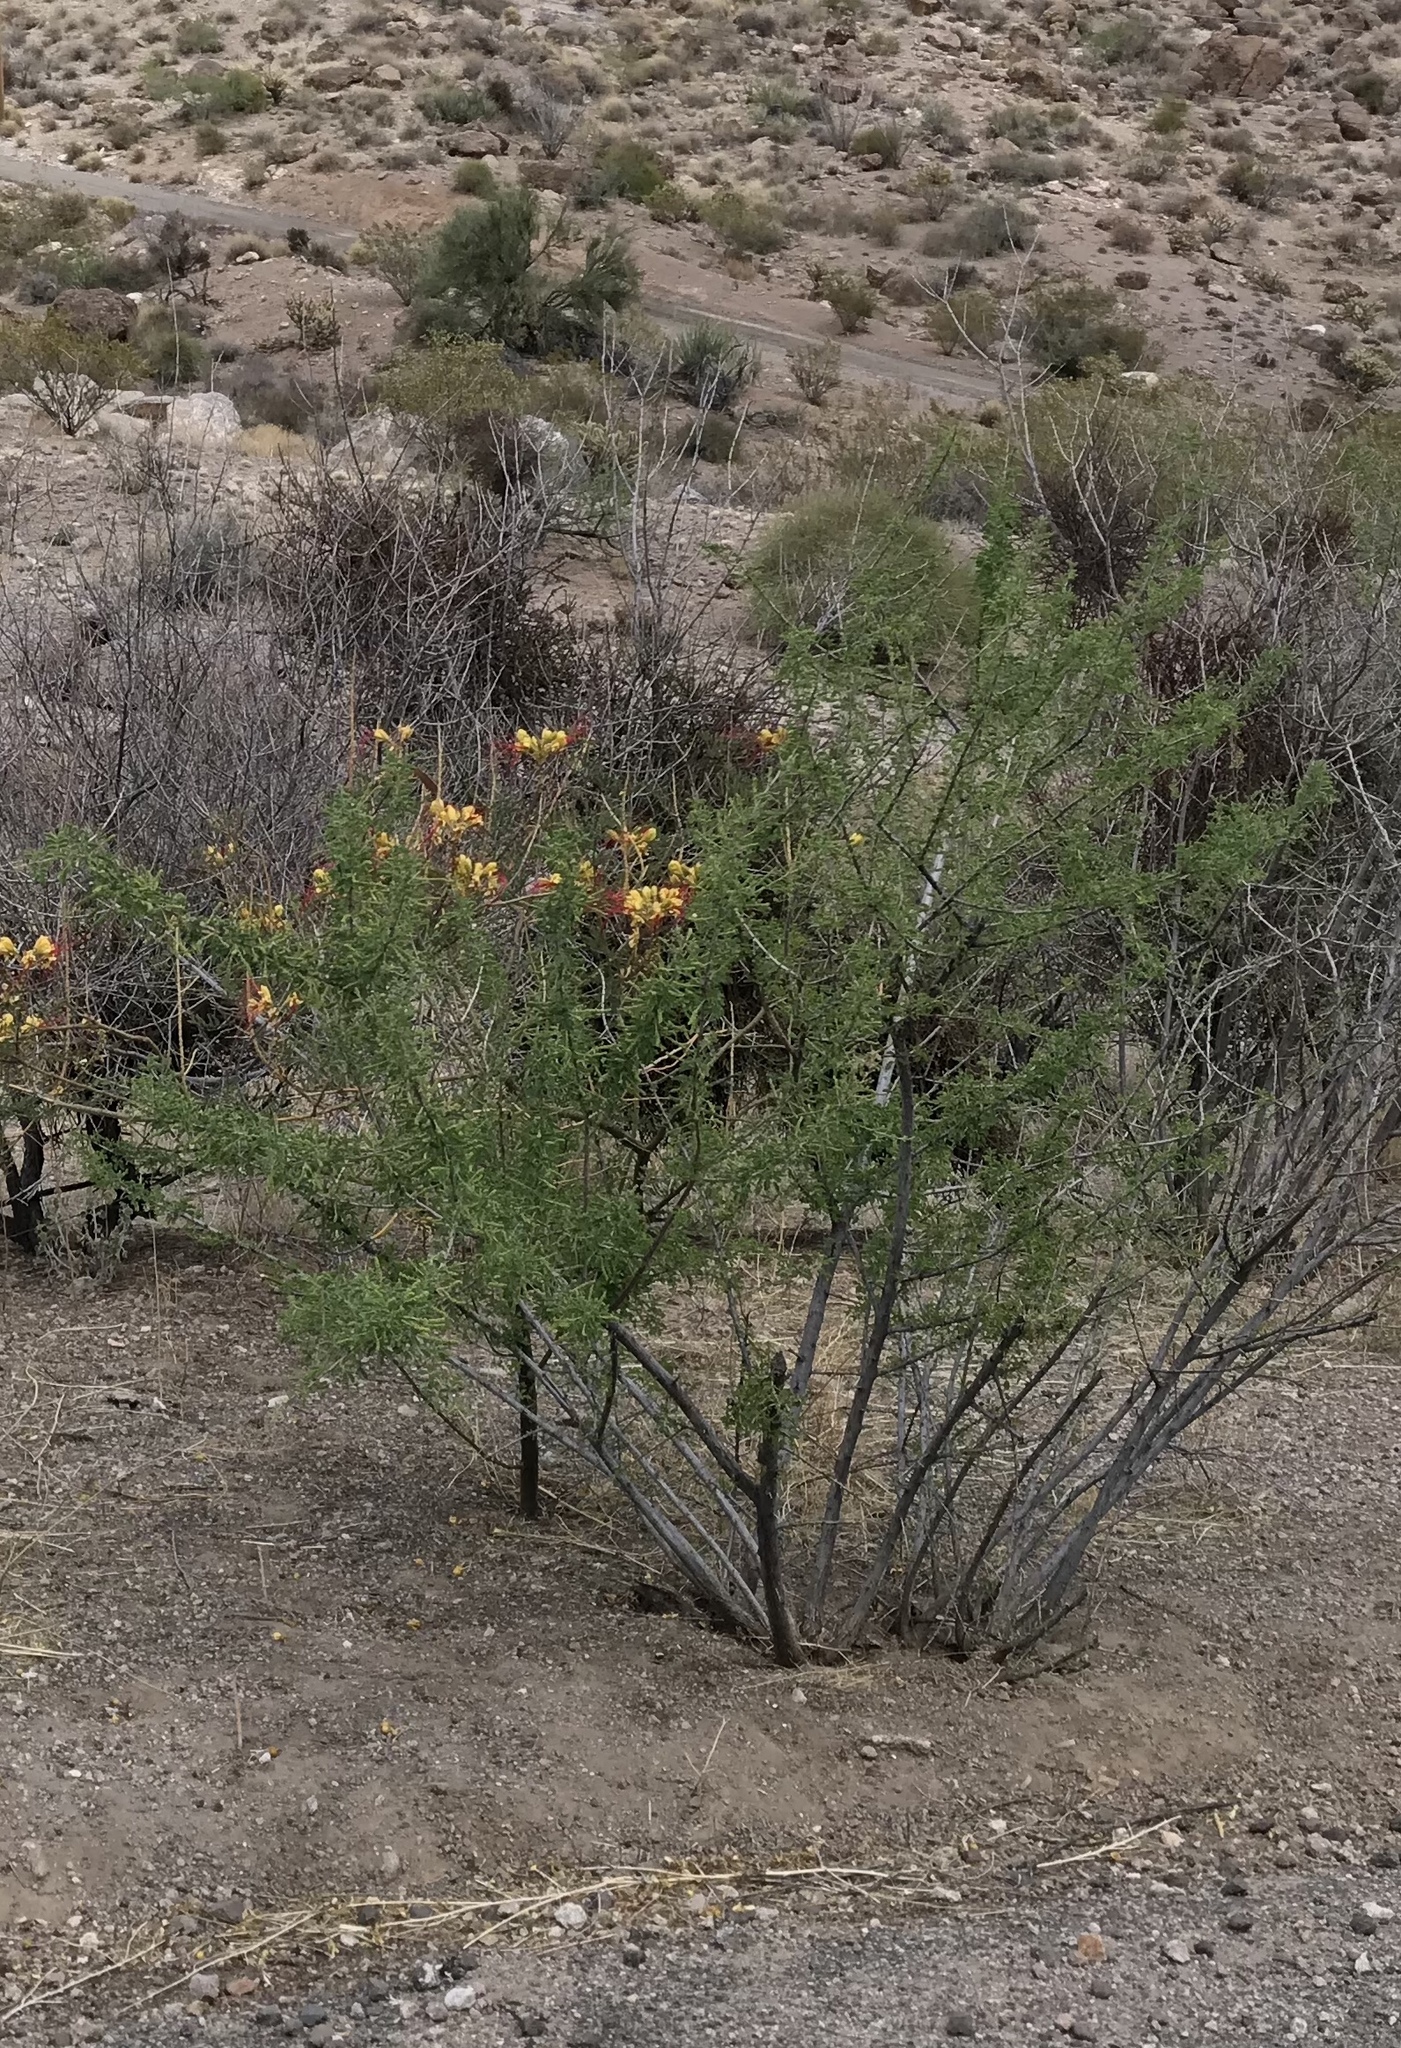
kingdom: Plantae
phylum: Tracheophyta
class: Magnoliopsida
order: Fabales
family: Fabaceae
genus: Erythrostemon
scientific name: Erythrostemon gilliesii
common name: Bird-of-paradise shrub
